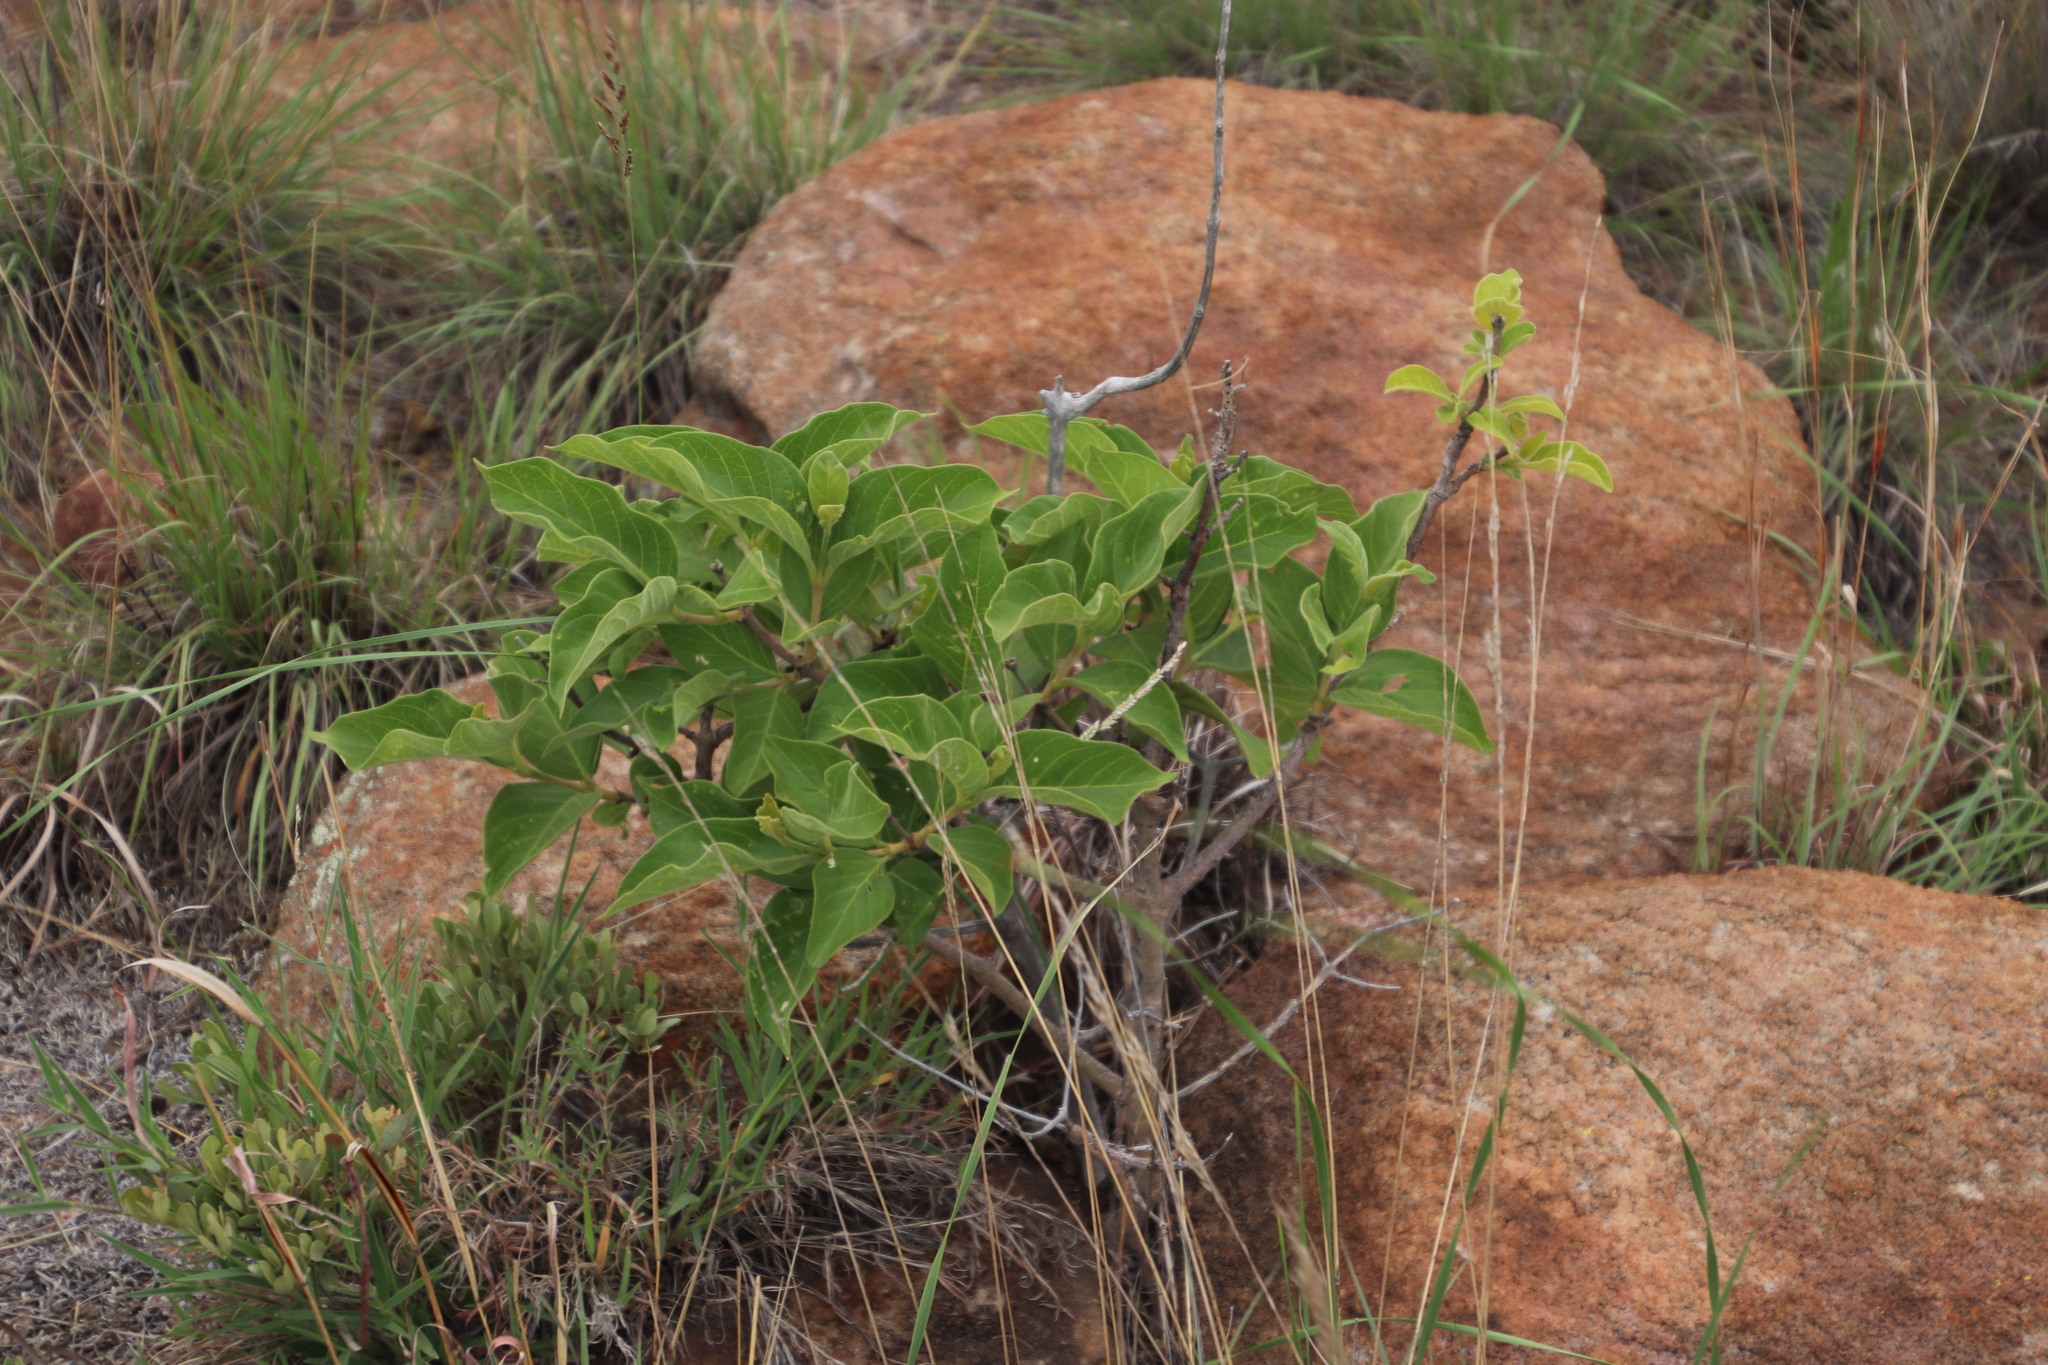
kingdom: Plantae
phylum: Tracheophyta
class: Magnoliopsida
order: Gentianales
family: Rubiaceae
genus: Vangueria
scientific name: Vangueria infausta
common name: Medlar
